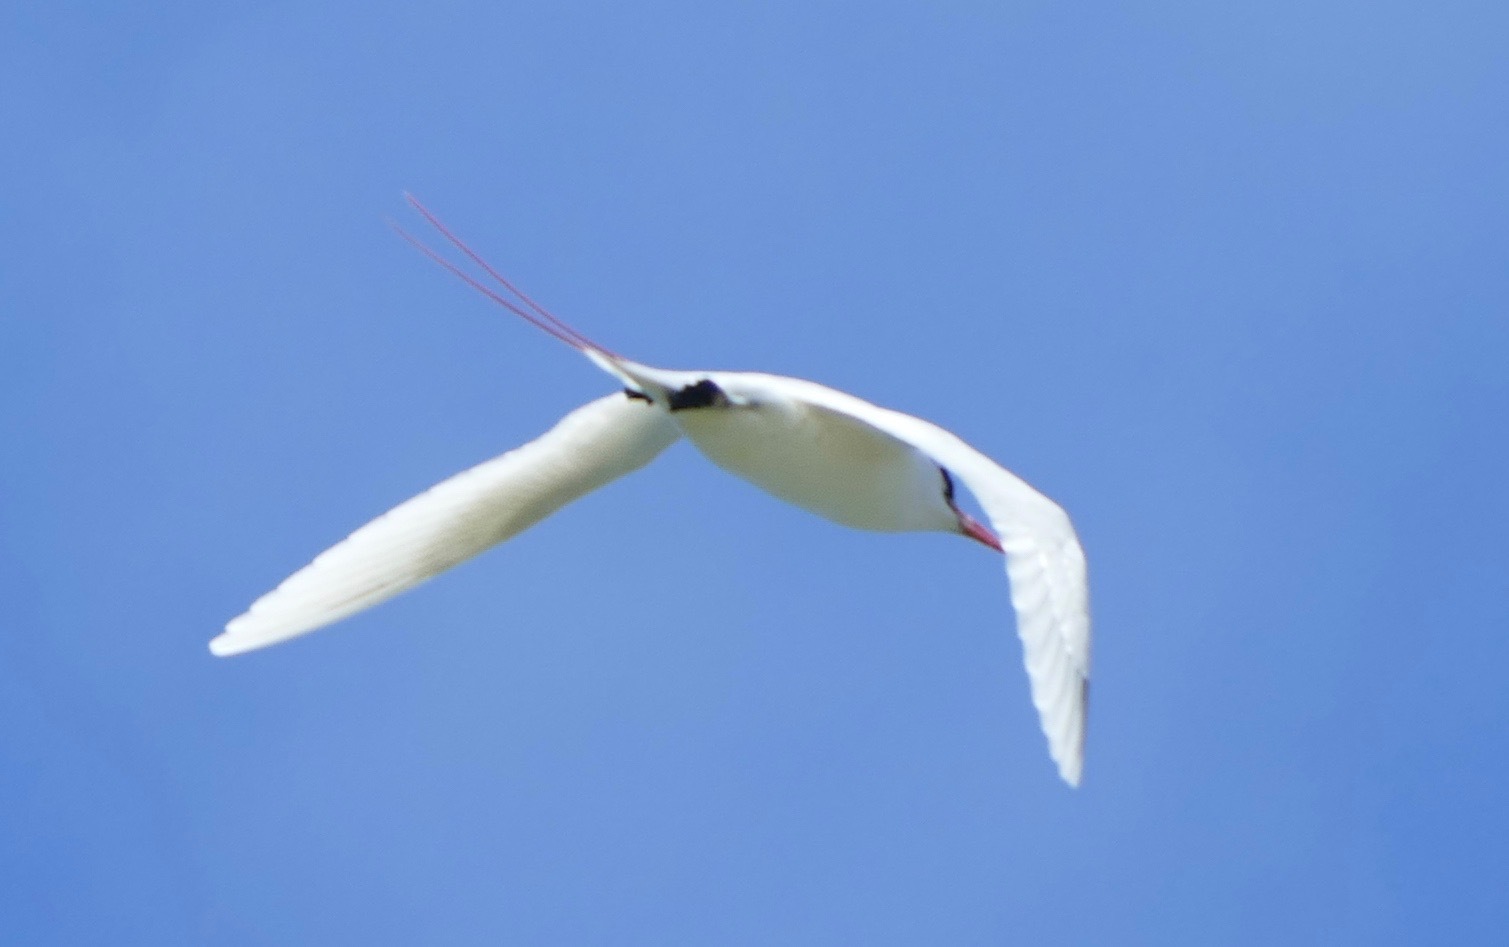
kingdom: Animalia
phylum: Chordata
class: Aves
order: Phaethontiformes
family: Phaethontidae
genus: Phaethon
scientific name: Phaethon rubricauda
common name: Red-tailed tropicbird
